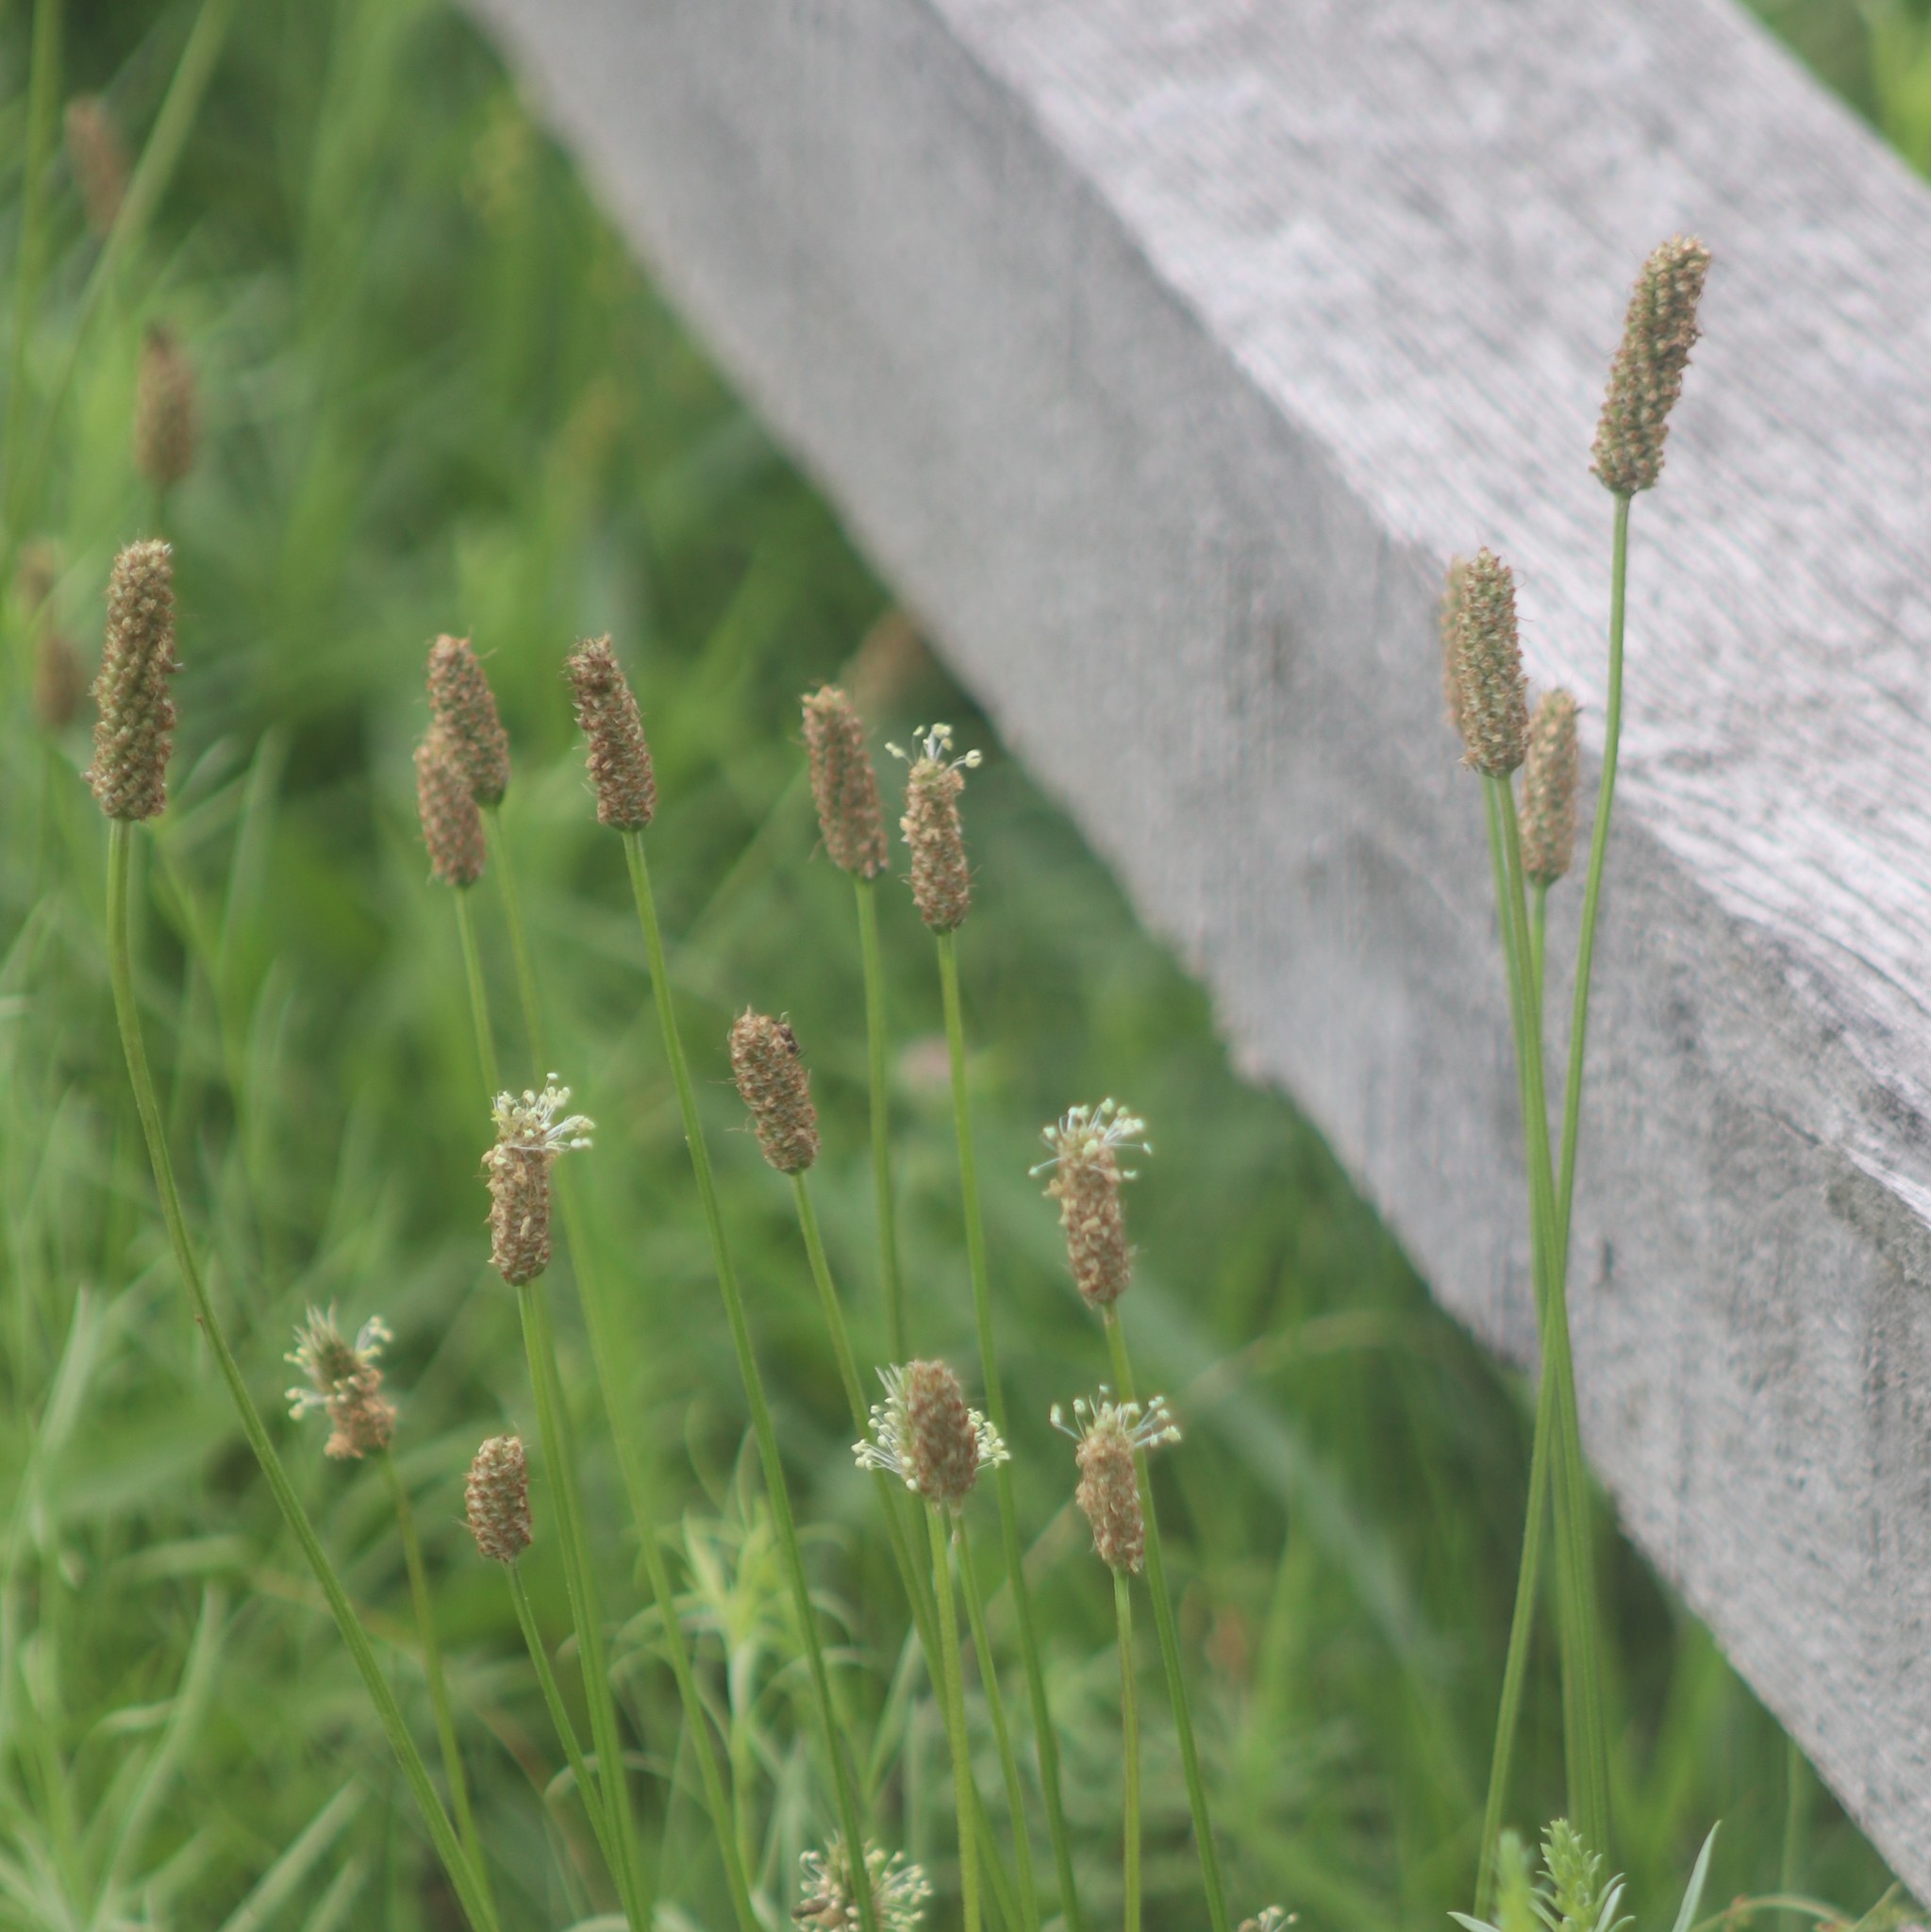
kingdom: Plantae
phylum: Tracheophyta
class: Magnoliopsida
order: Lamiales
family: Plantaginaceae
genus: Plantago
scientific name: Plantago lanceolata
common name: Ribwort plantain
